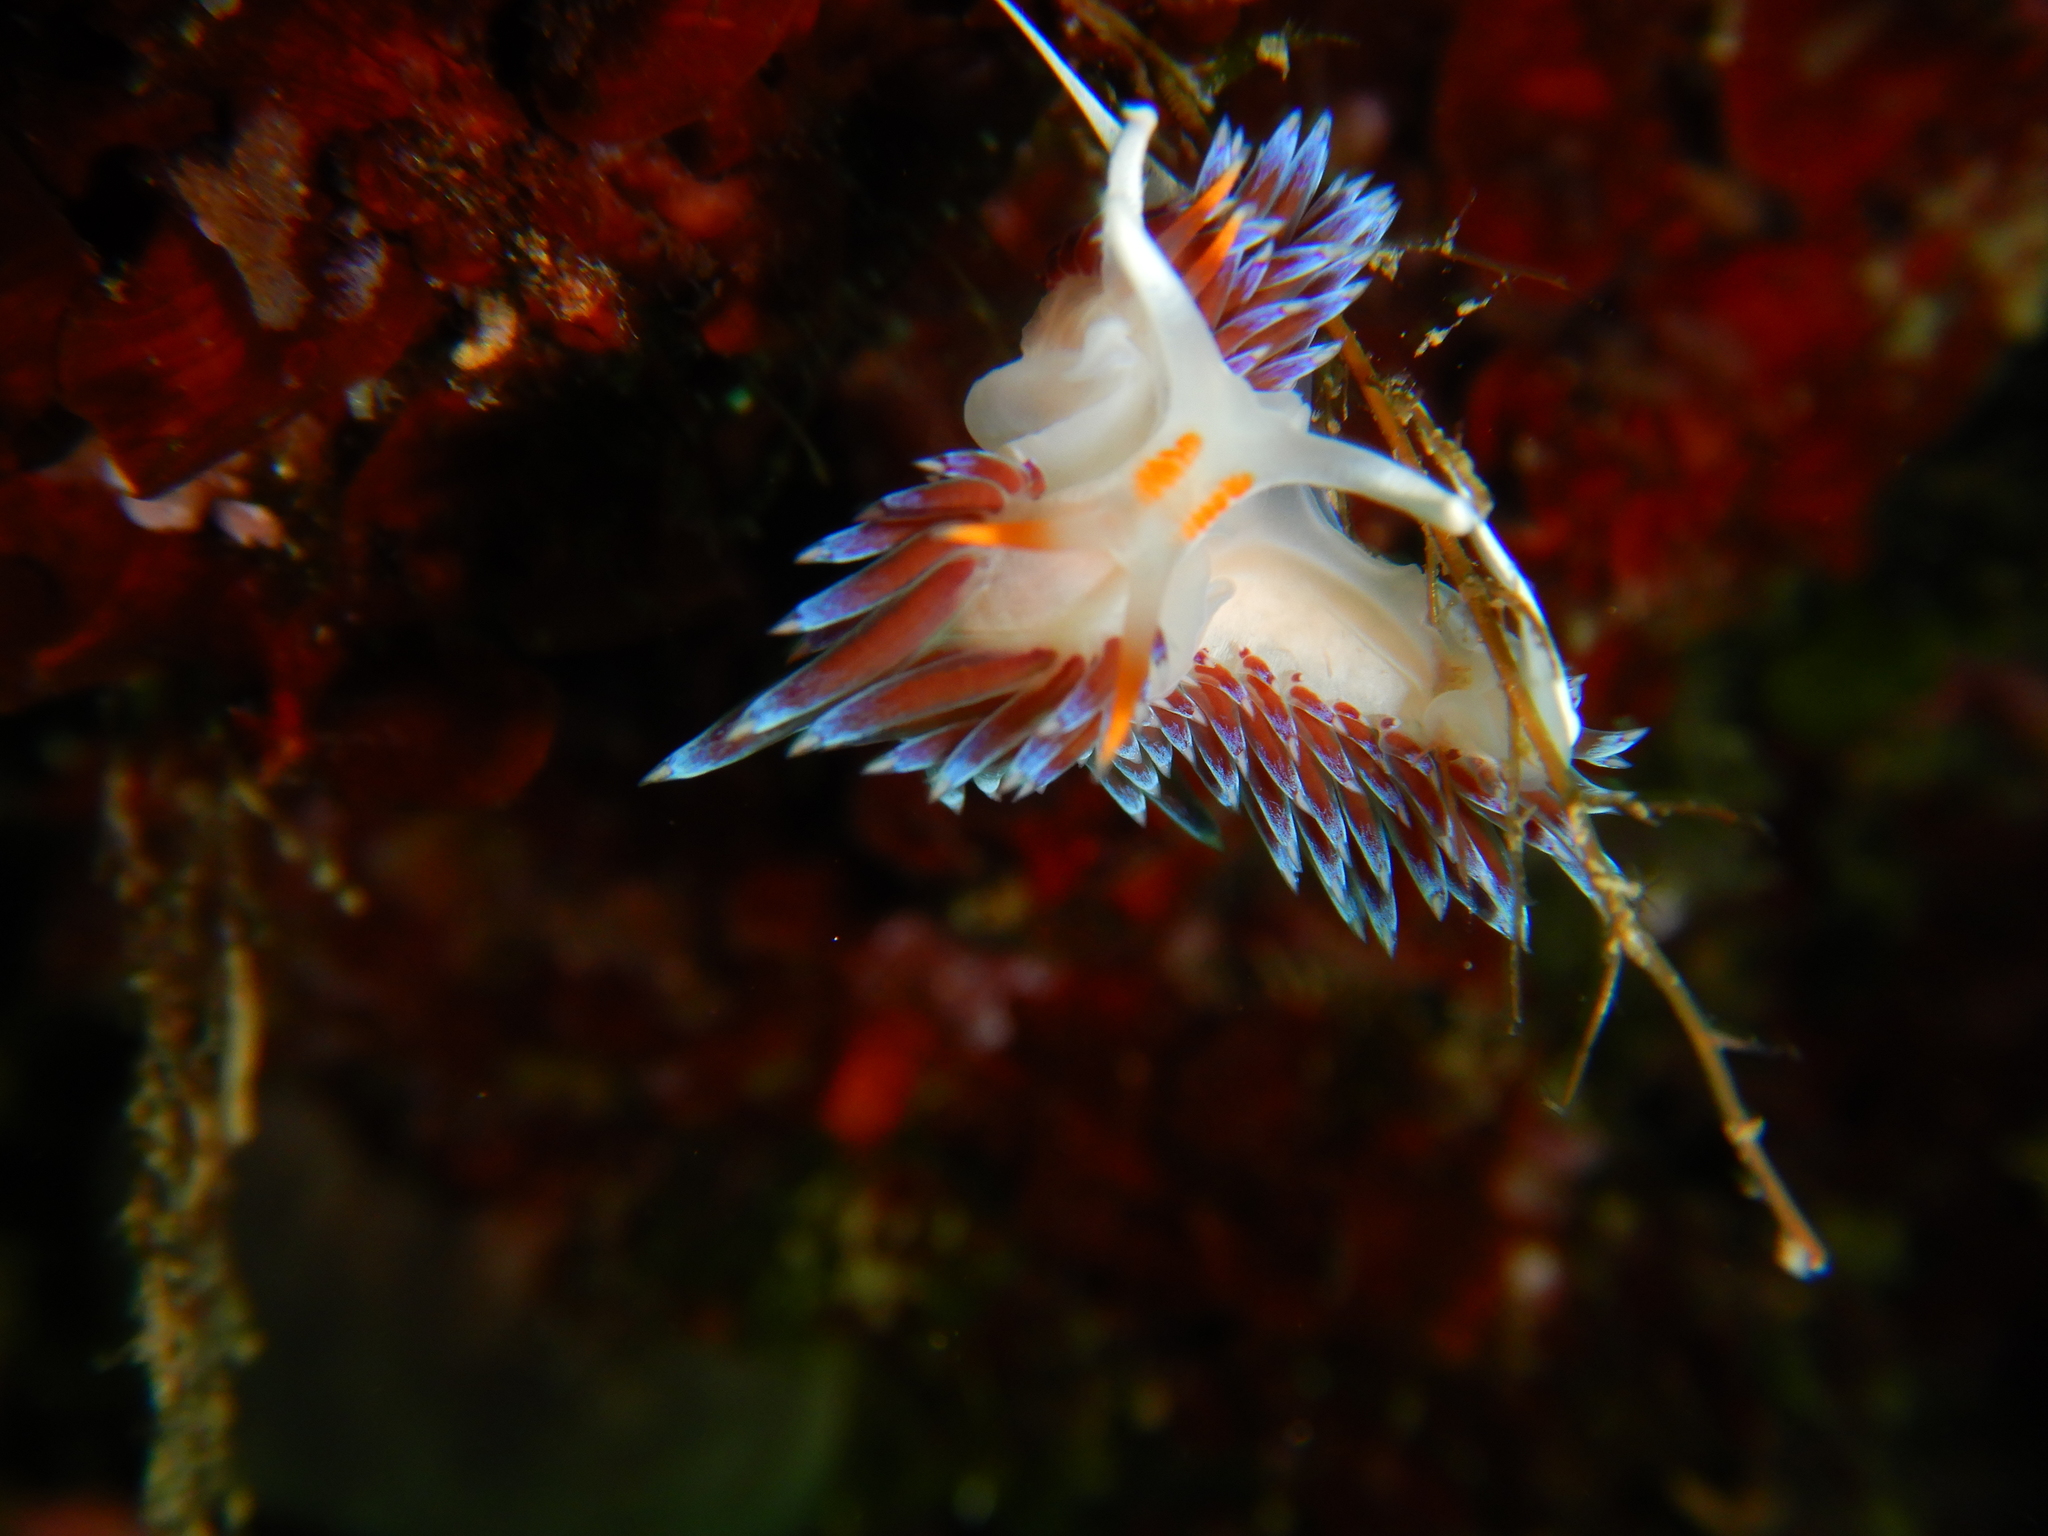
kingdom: Animalia
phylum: Mollusca
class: Gastropoda
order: Nudibranchia
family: Facelinidae
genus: Cratena
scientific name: Cratena peregrina
